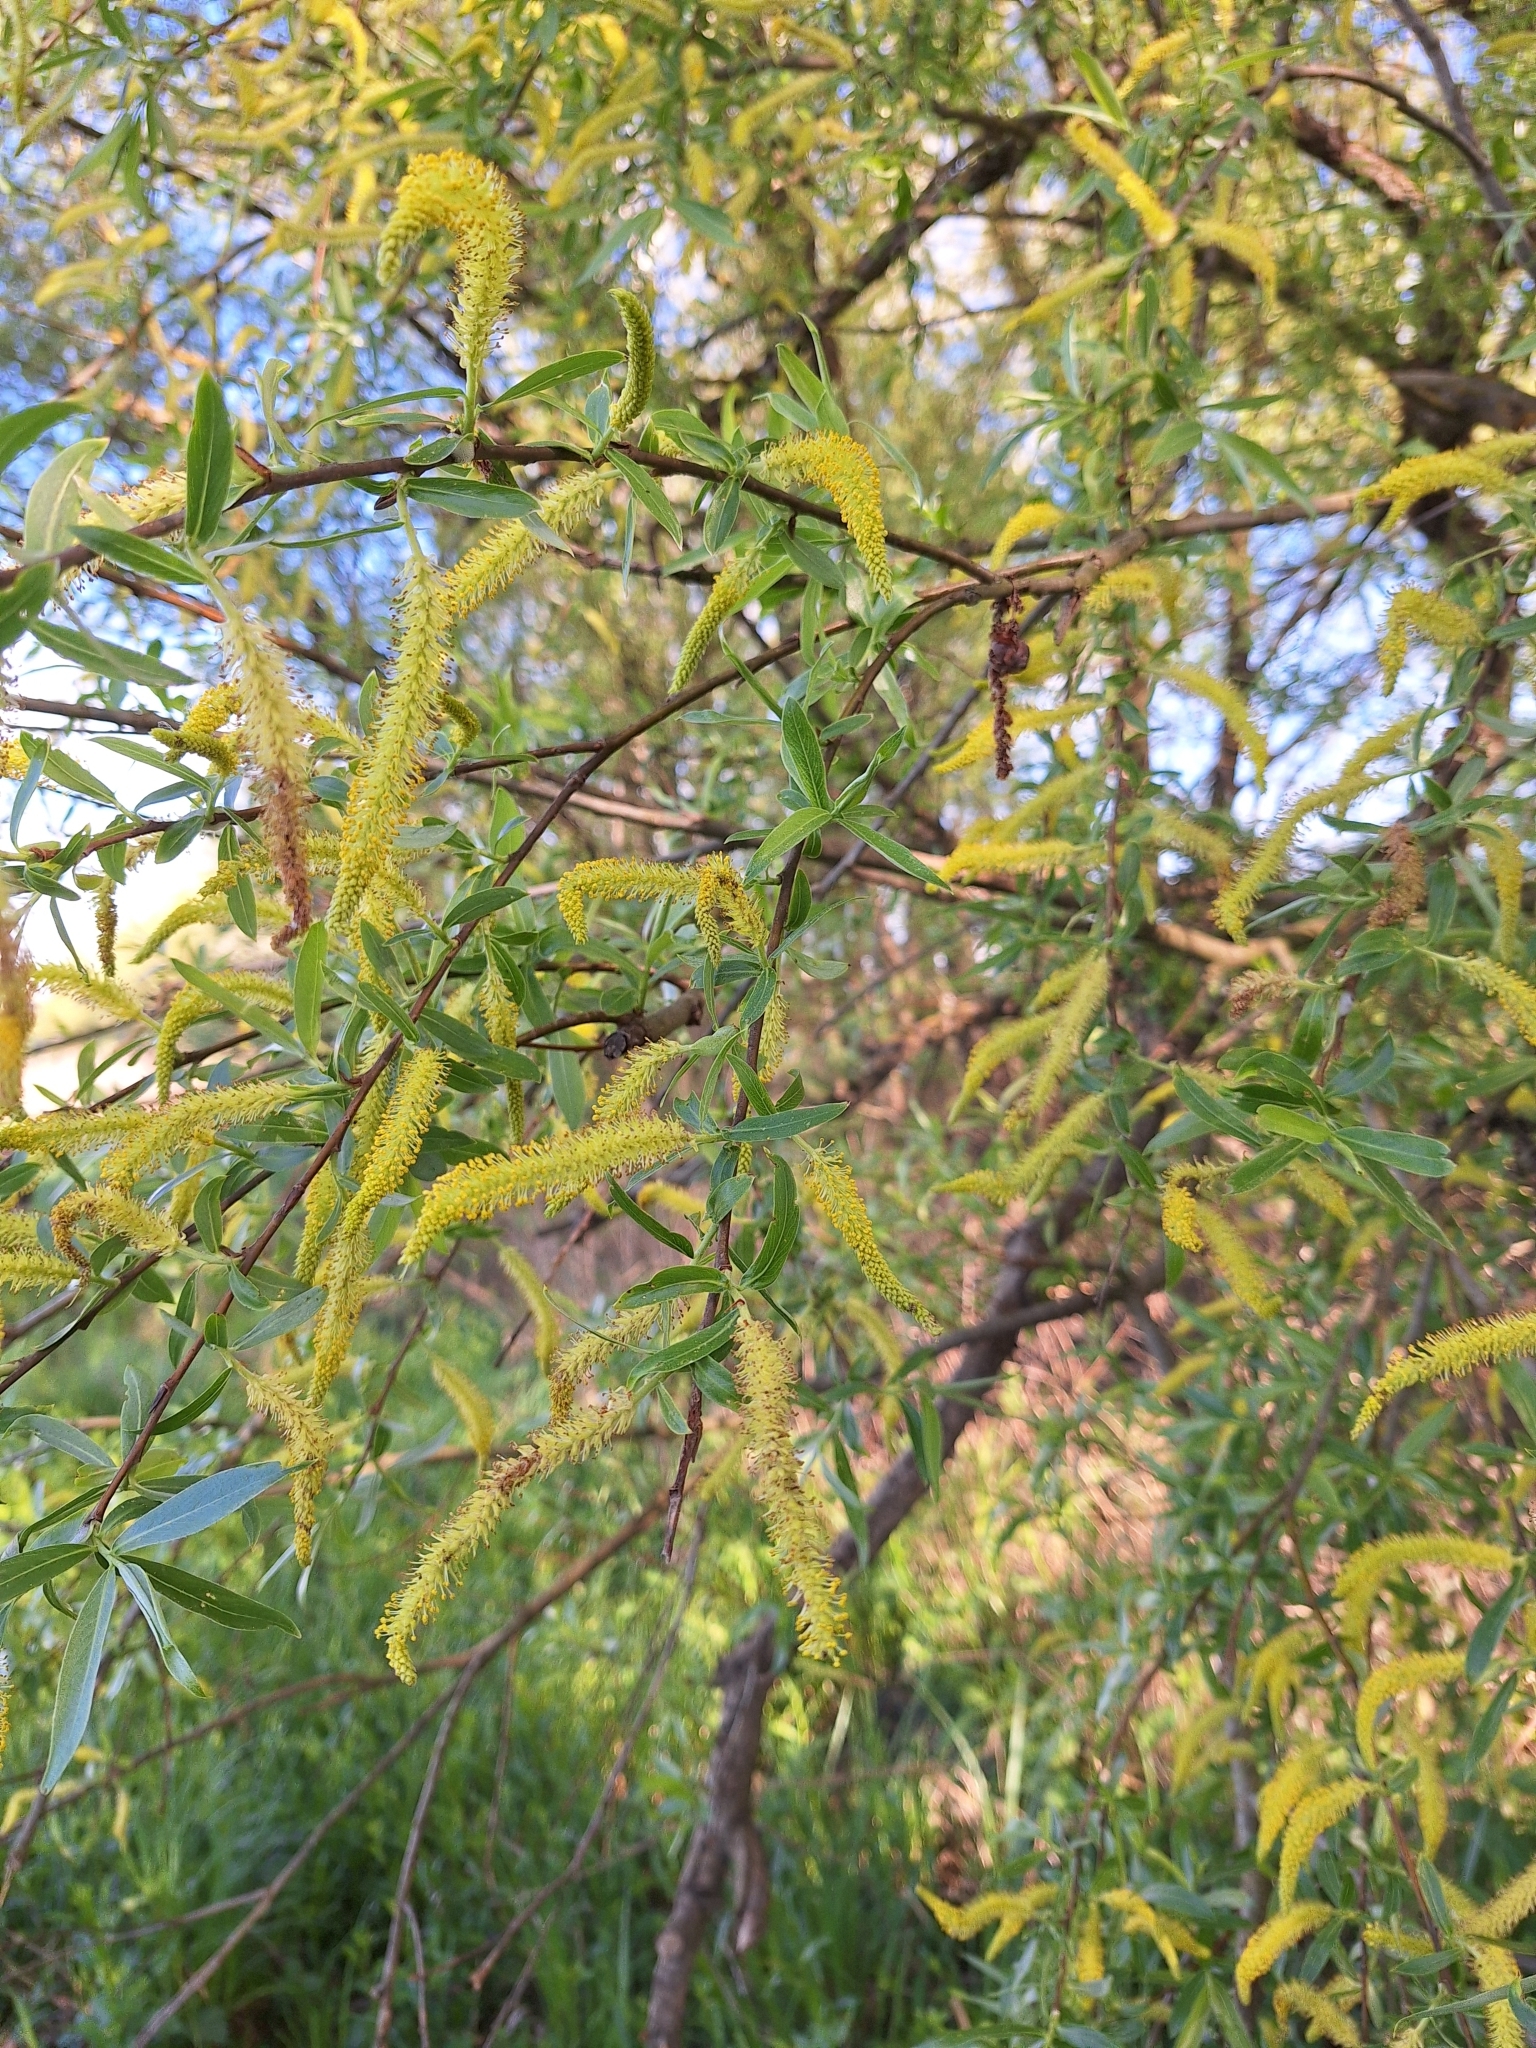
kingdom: Plantae
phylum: Tracheophyta
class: Magnoliopsida
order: Malpighiales
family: Salicaceae
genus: Salix
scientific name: Salix alba
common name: White willow
